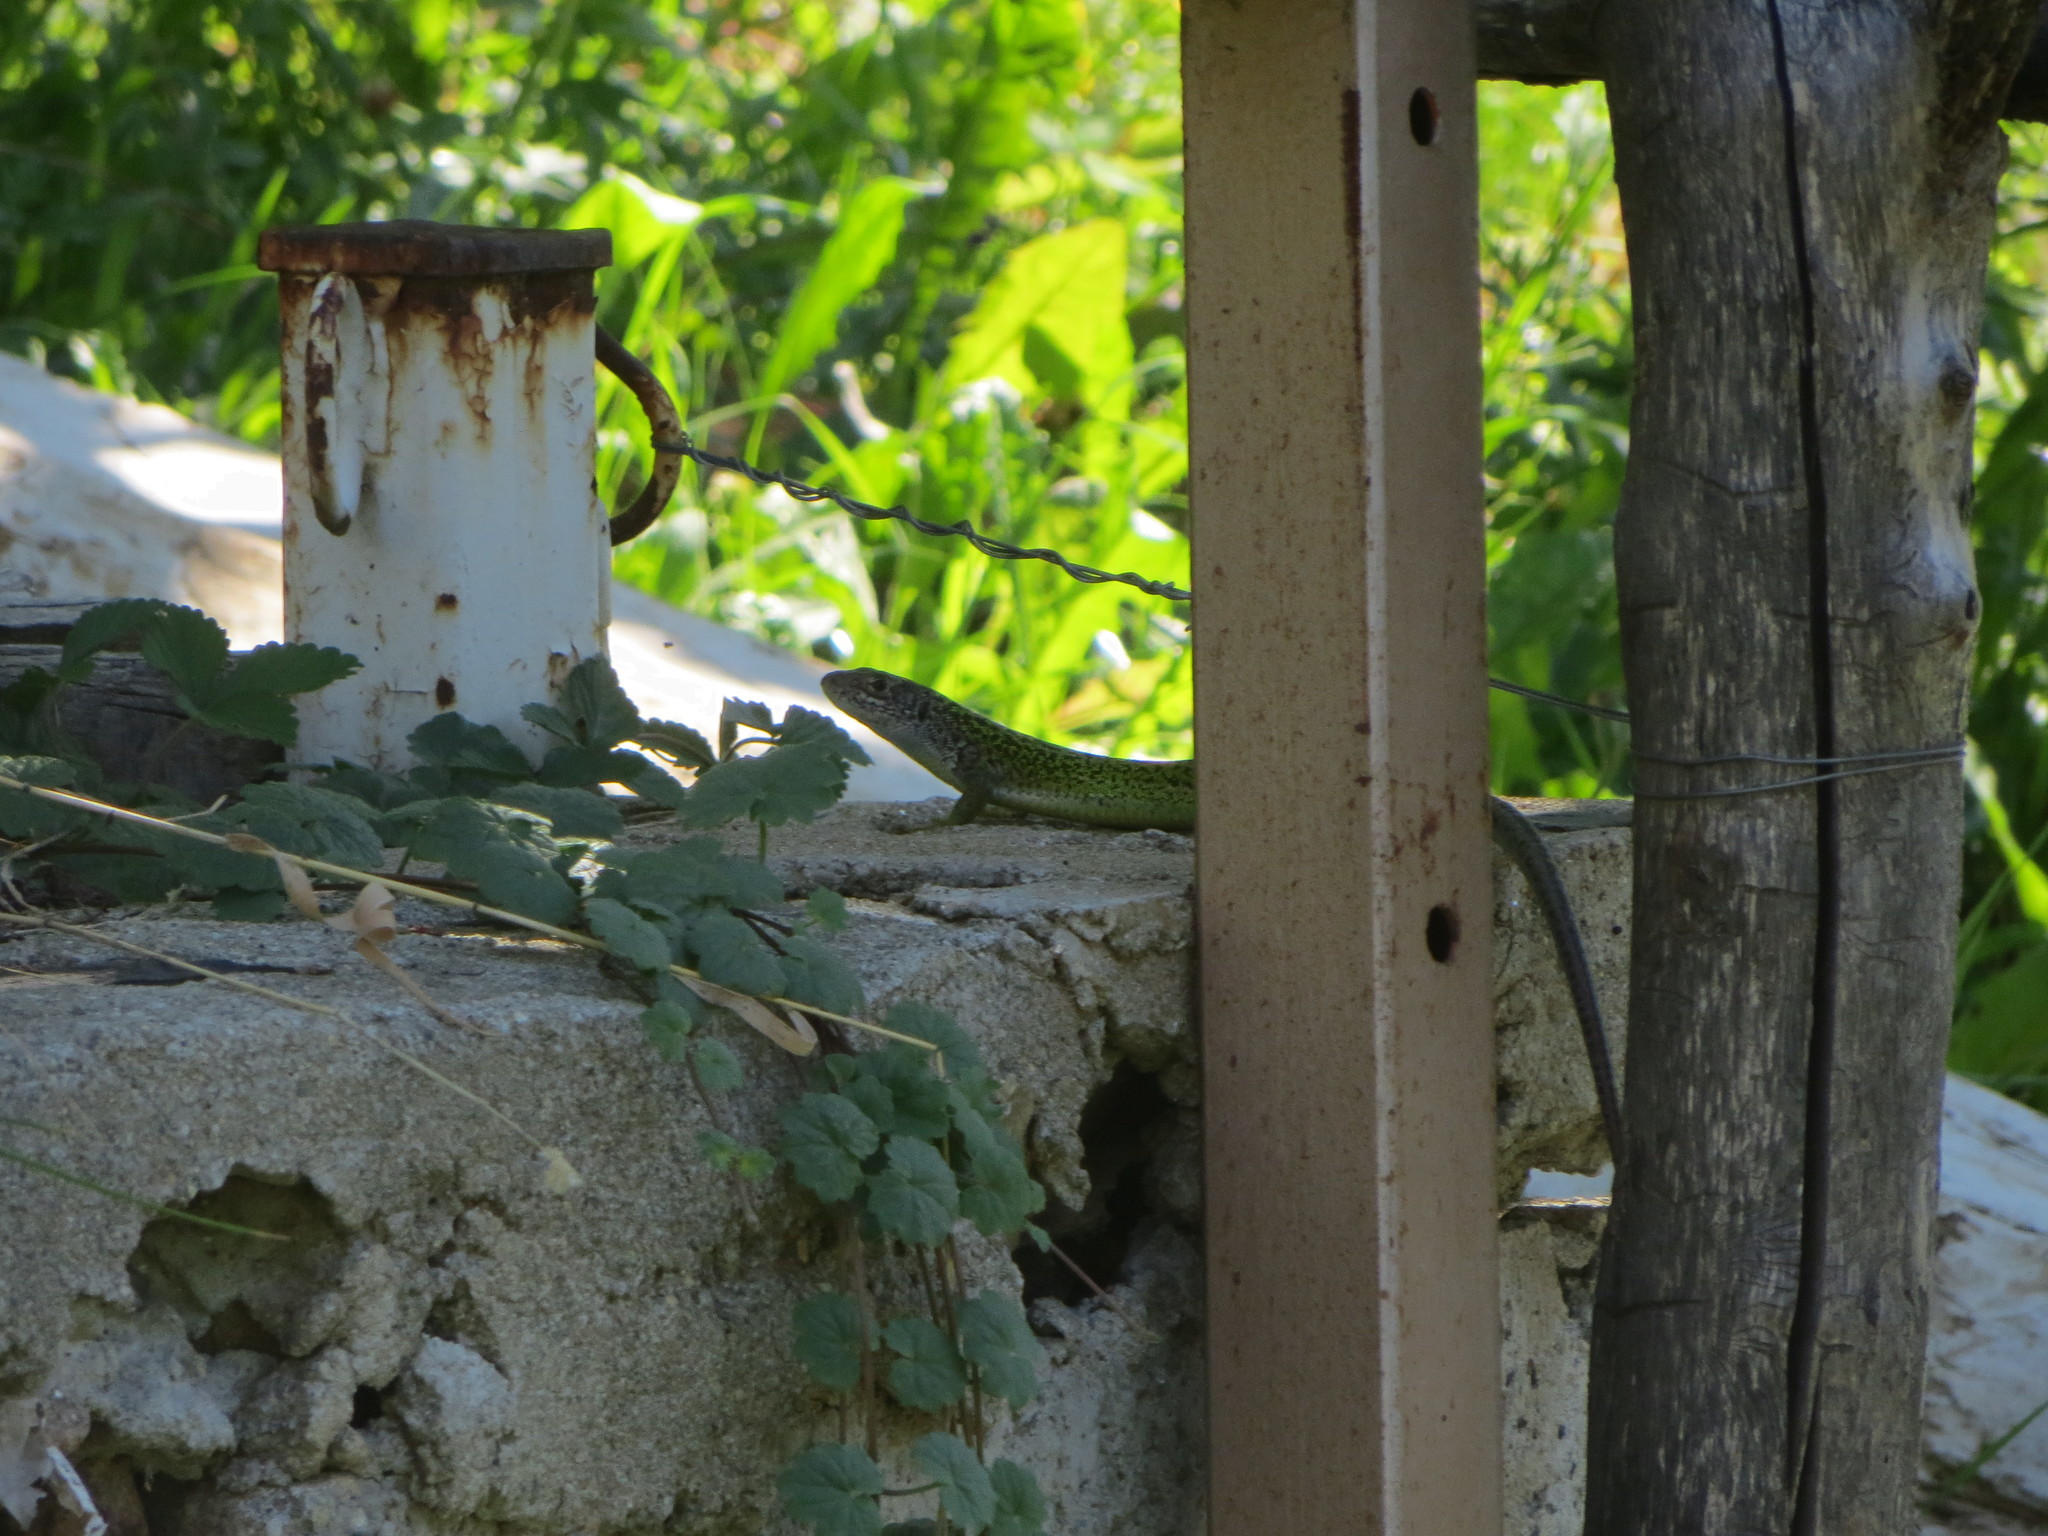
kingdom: Animalia
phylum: Chordata
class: Squamata
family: Lacertidae
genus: Lacerta
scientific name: Lacerta bilineata
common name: Western green lizard
